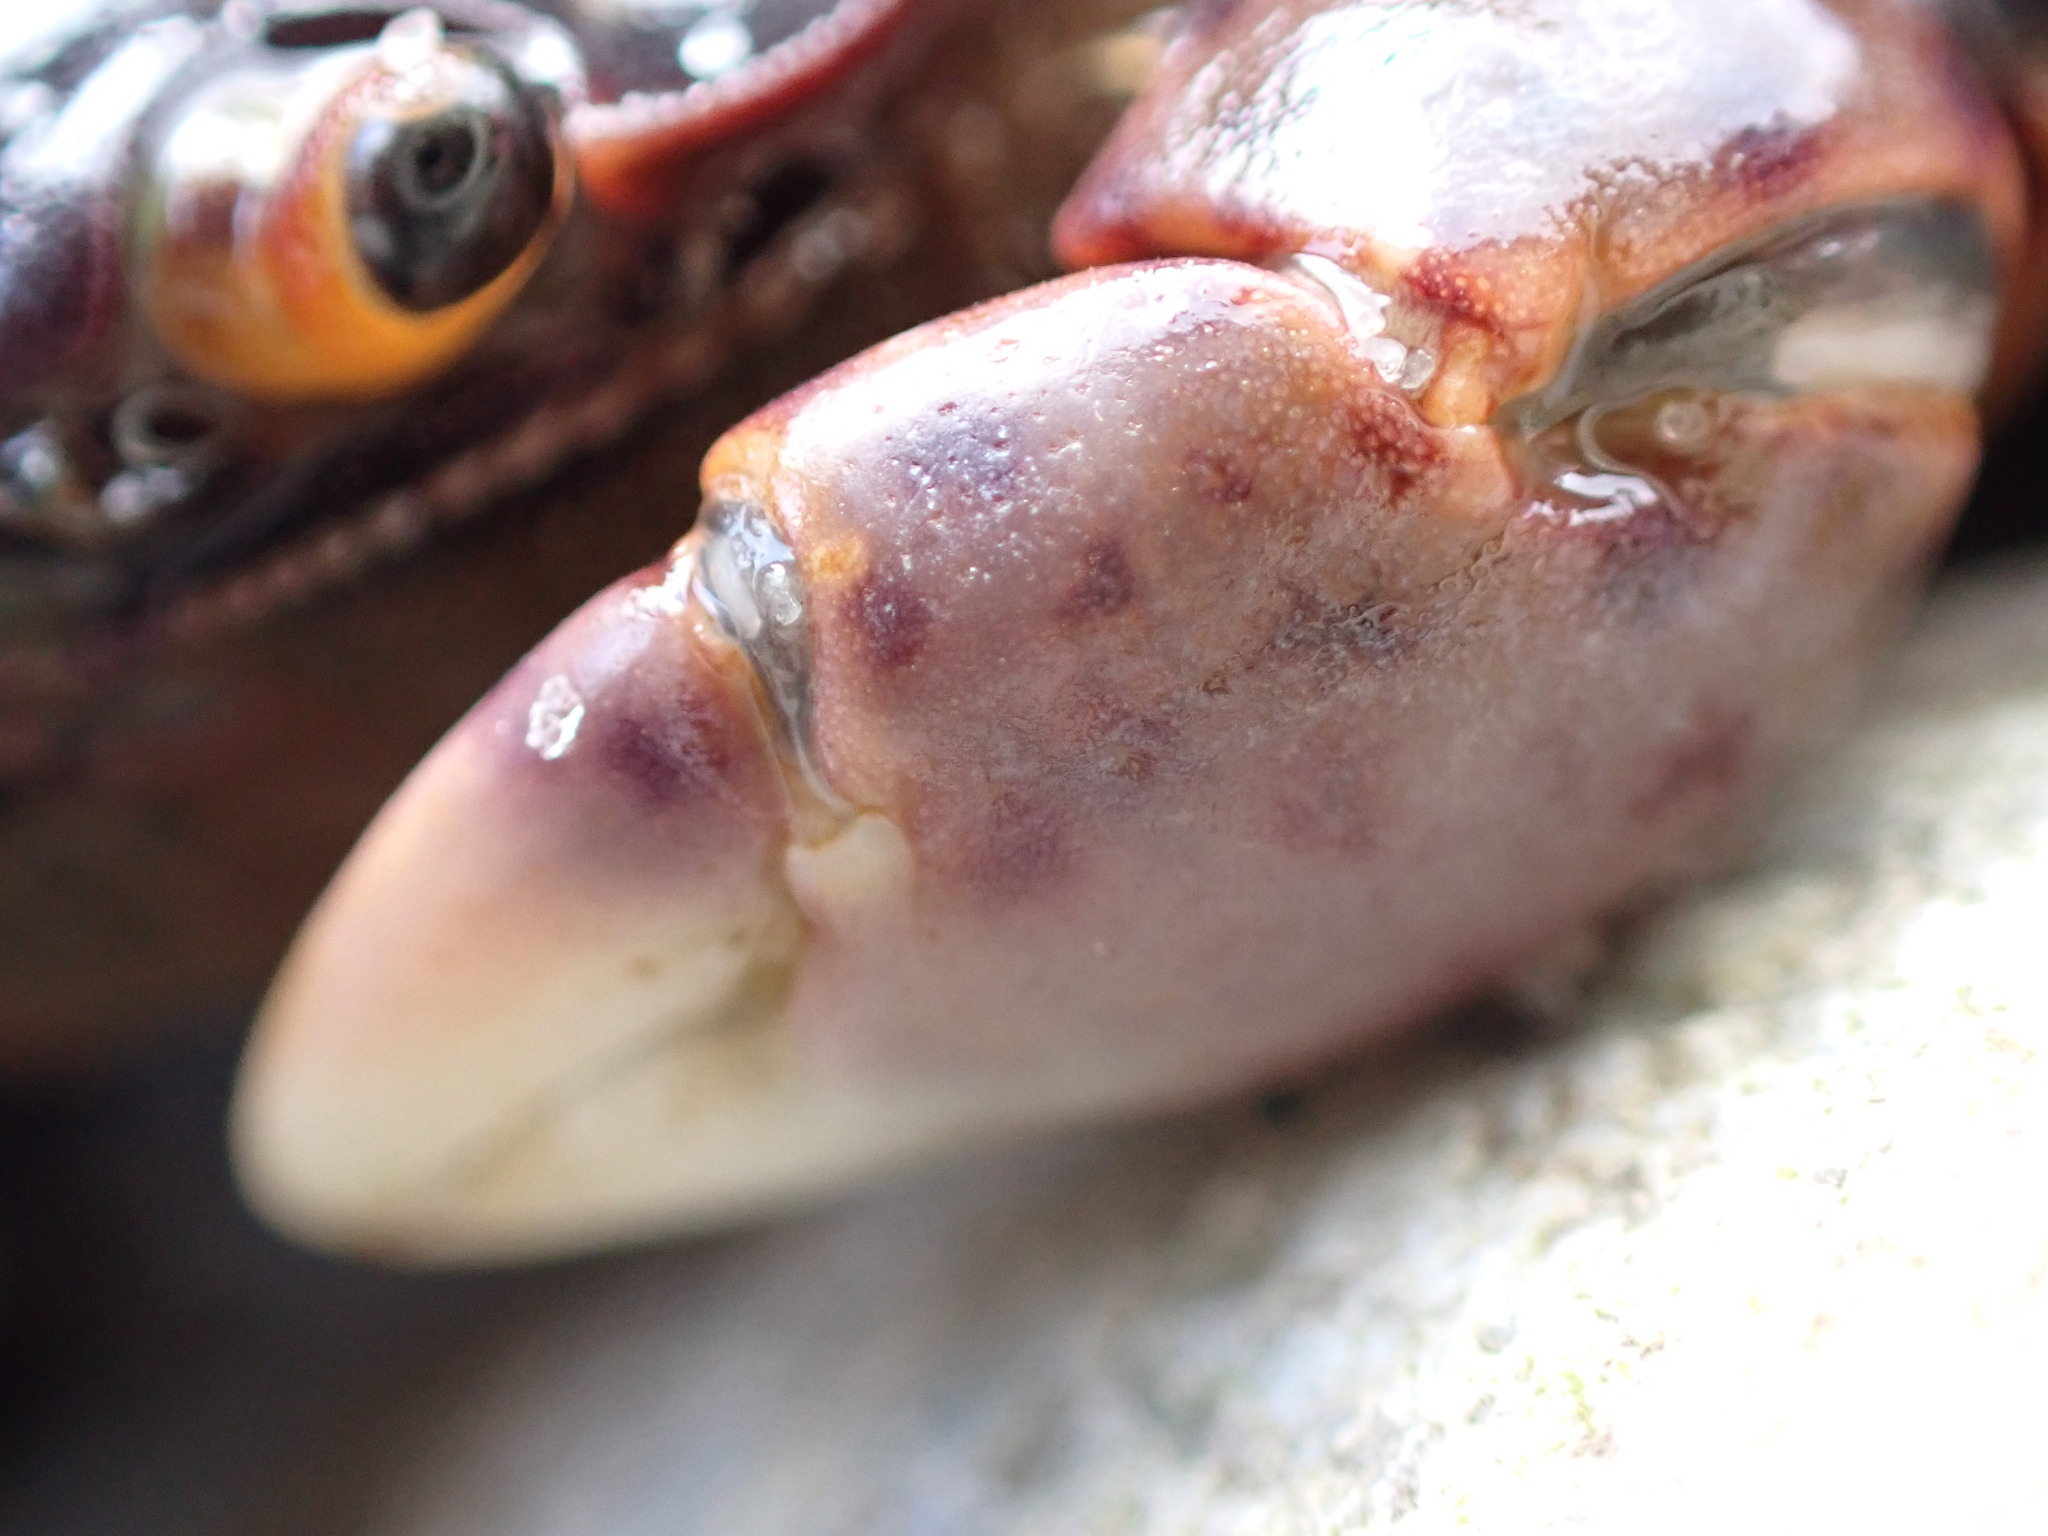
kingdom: Animalia
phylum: Arthropoda
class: Malacostraca
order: Decapoda
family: Varunidae
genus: Hemigrapsus
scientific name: Hemigrapsus nudus
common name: Purple shore crab
